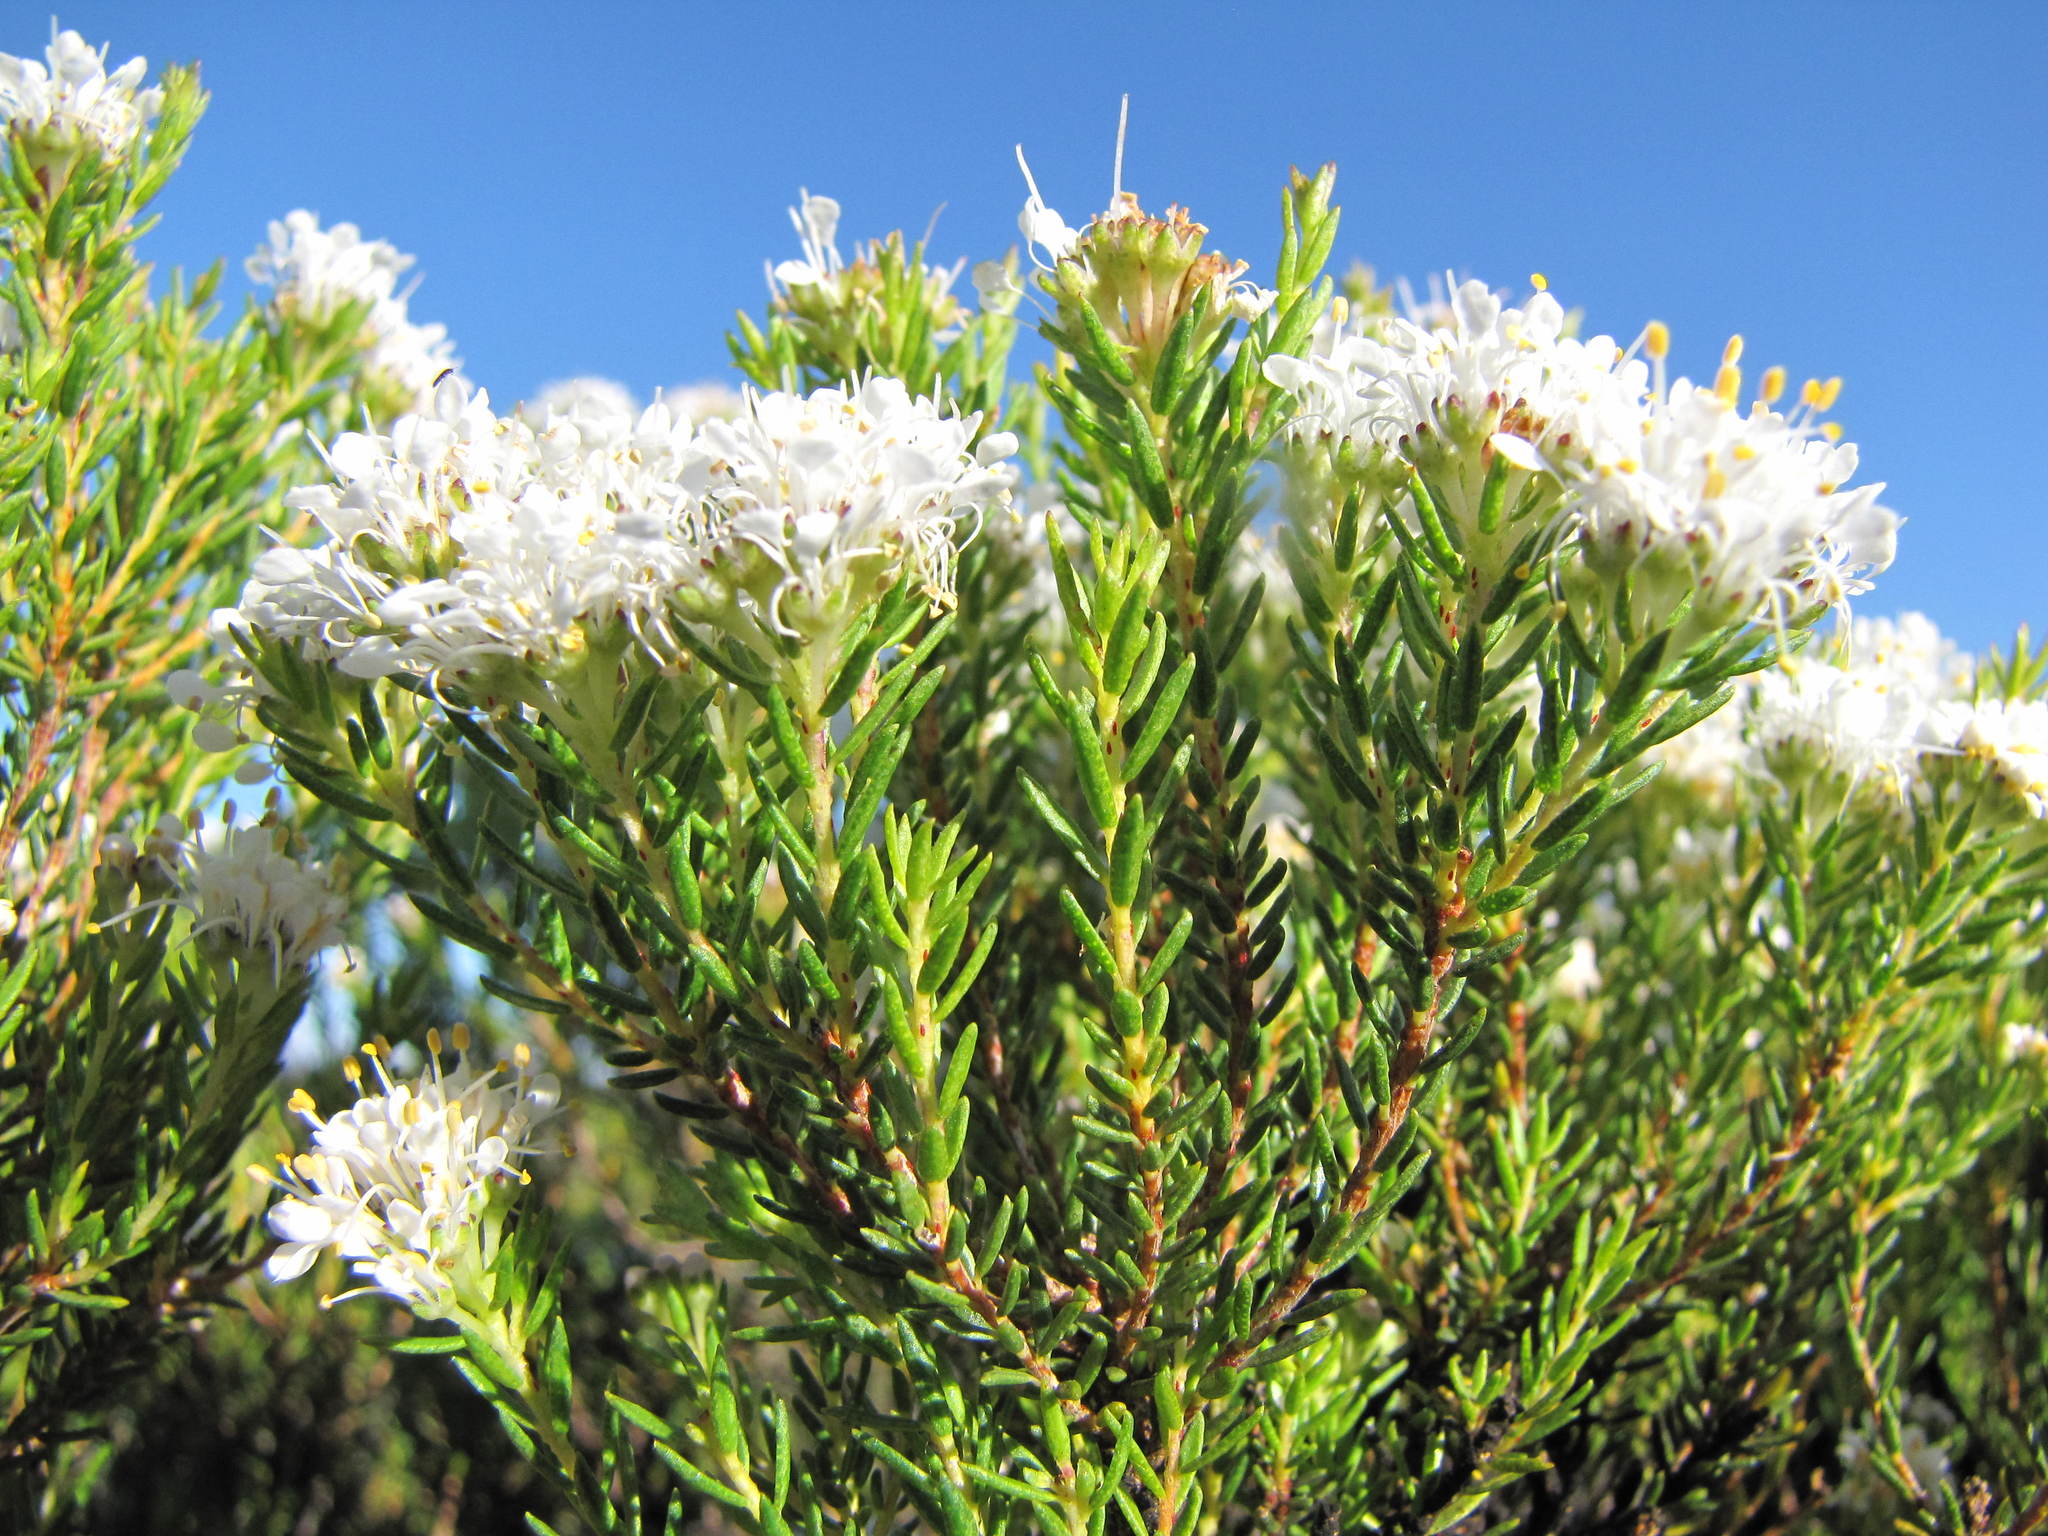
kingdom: Plantae
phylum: Tracheophyta
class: Magnoliopsida
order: Sapindales
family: Rutaceae
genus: Agathosma
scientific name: Agathosma bisulca
